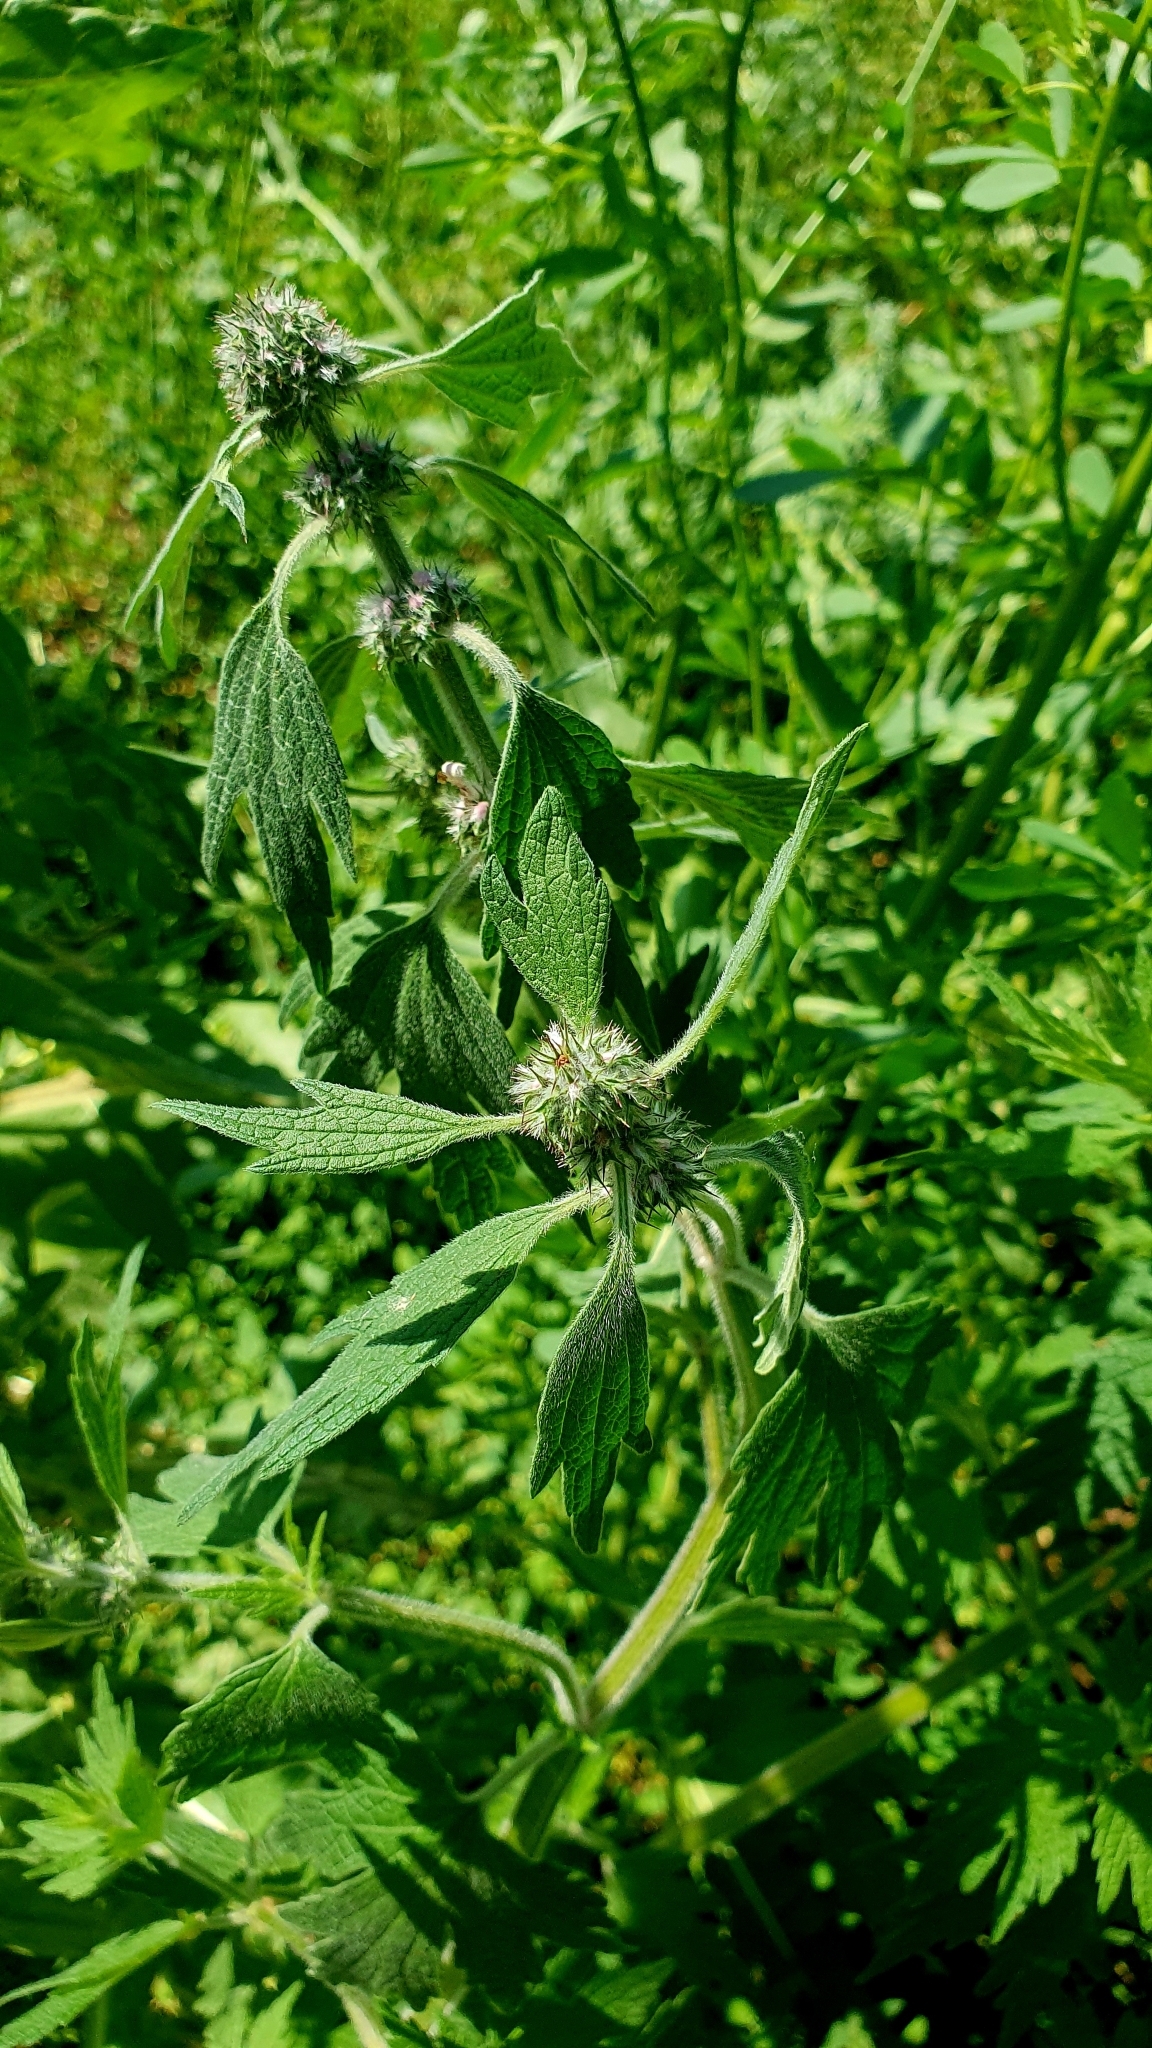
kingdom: Plantae
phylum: Tracheophyta
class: Magnoliopsida
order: Lamiales
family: Lamiaceae
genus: Leonurus
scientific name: Leonurus quinquelobatus
